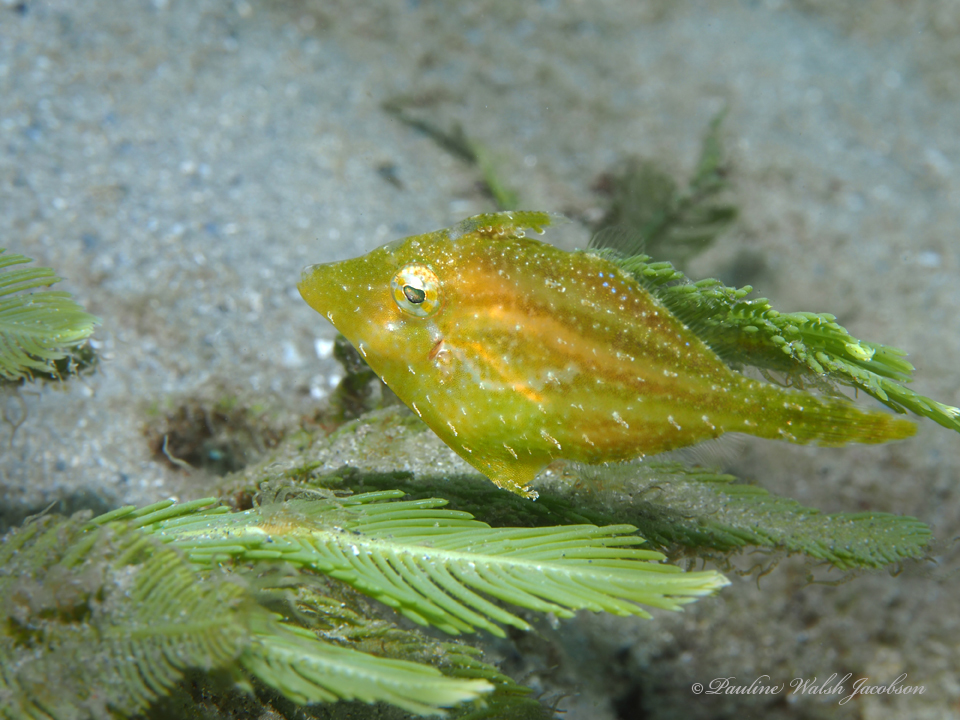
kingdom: Animalia
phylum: Chordata
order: Tetraodontiformes
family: Monacanthidae
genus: Monacanthus
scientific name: Monacanthus ciliatus
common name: Fringed filefish
